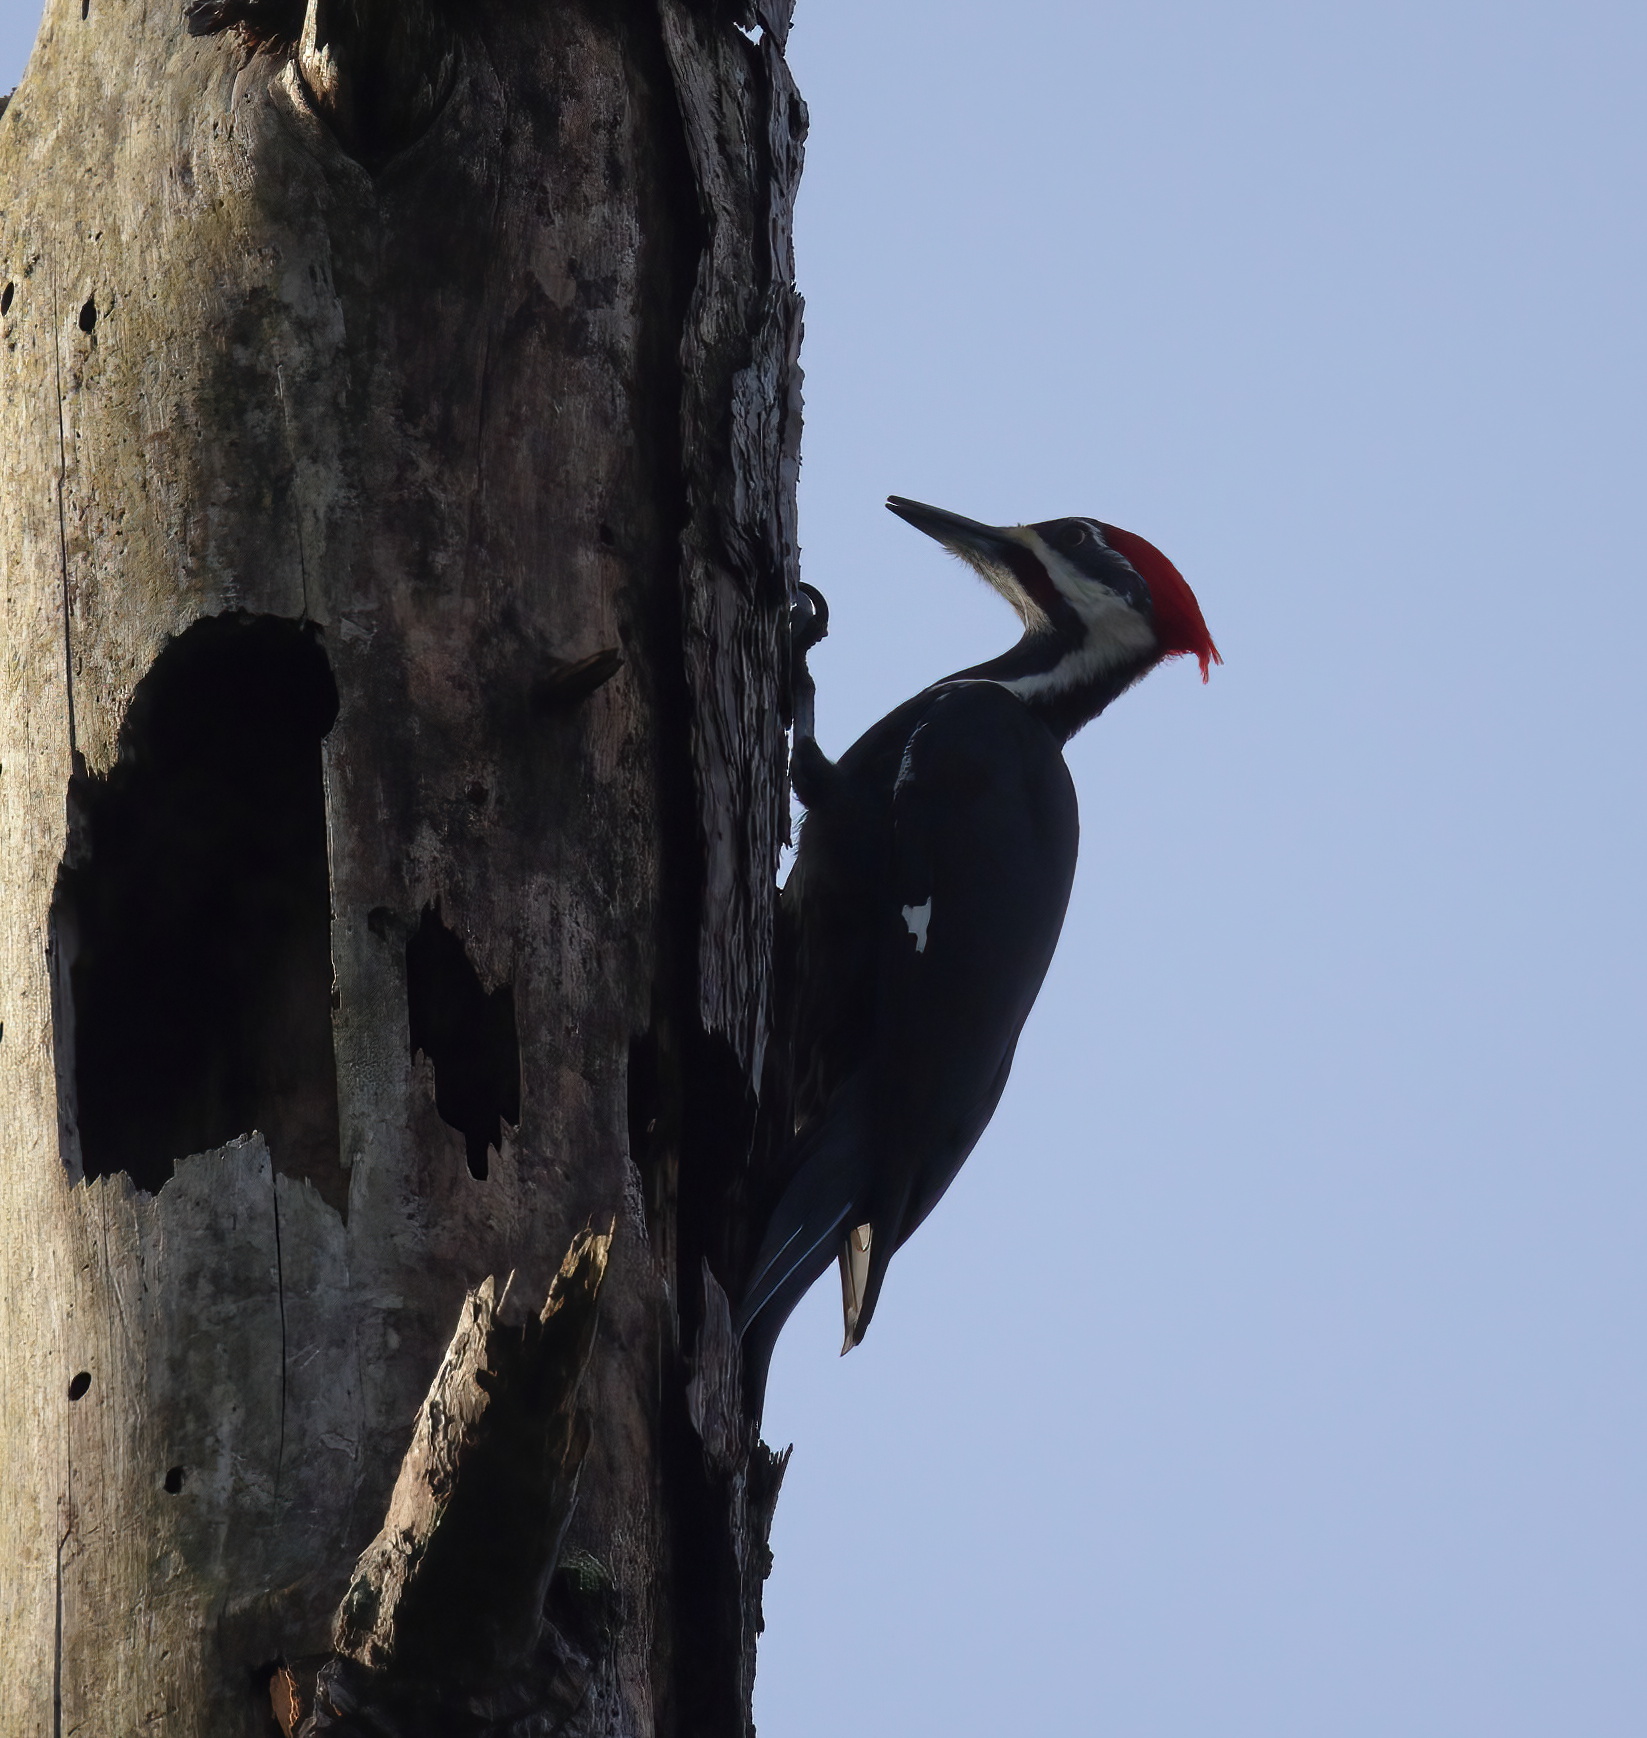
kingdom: Animalia
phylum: Chordata
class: Aves
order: Piciformes
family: Picidae
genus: Dryocopus
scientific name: Dryocopus pileatus
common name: Pileated woodpecker
